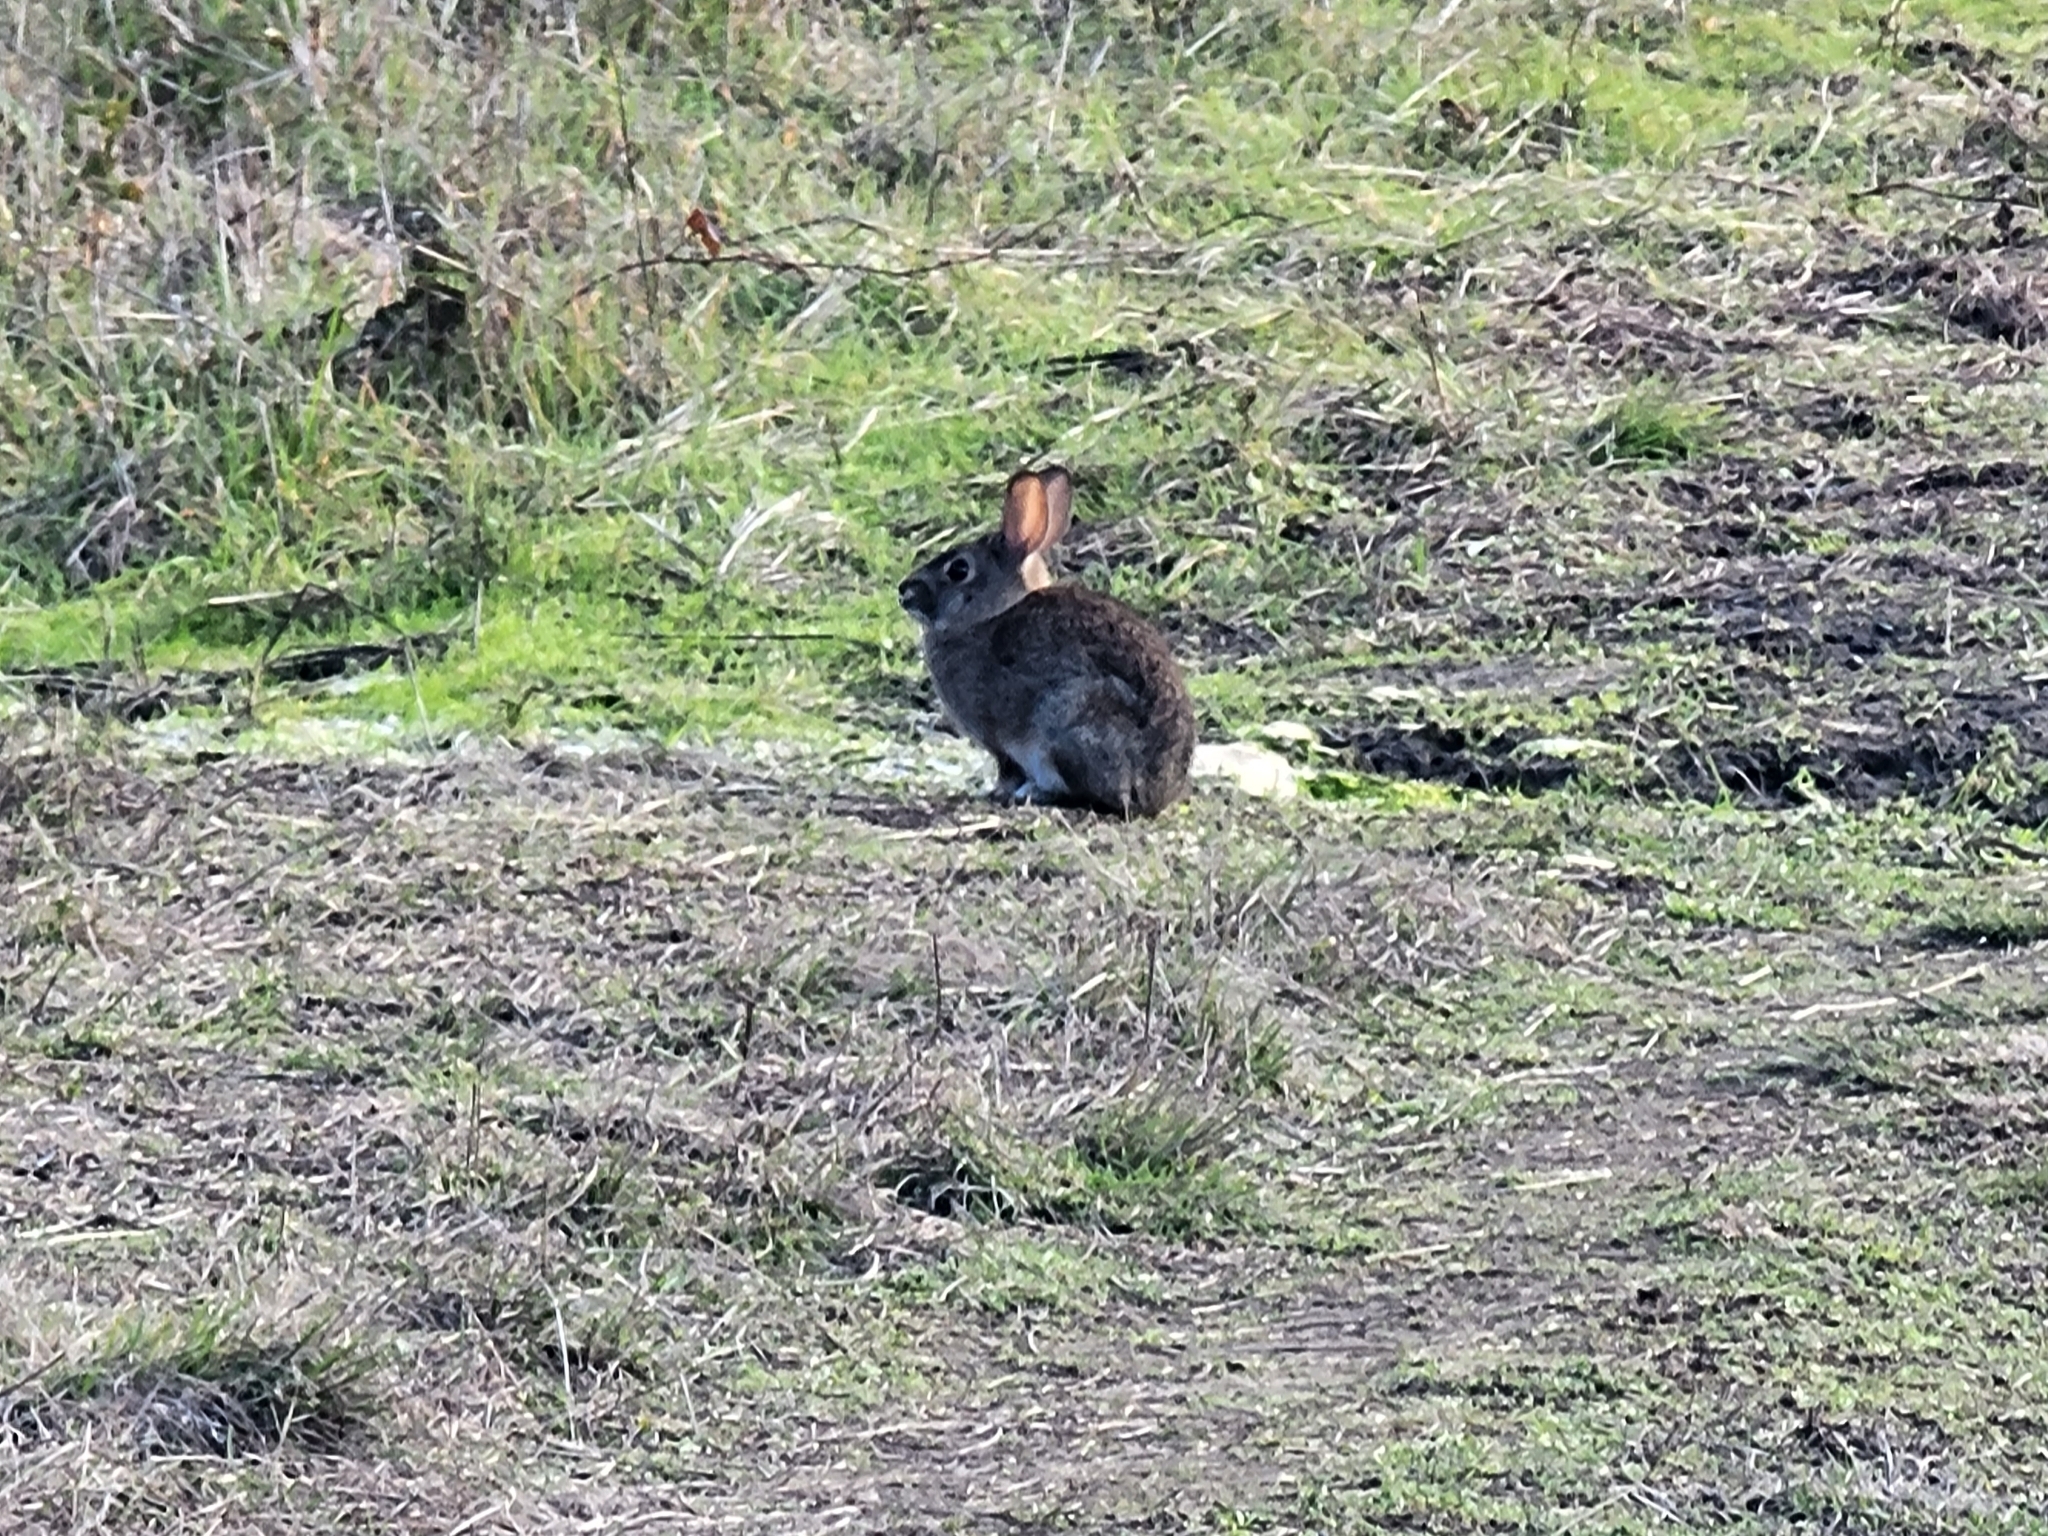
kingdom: Animalia
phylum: Chordata
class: Mammalia
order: Lagomorpha
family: Leporidae
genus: Sylvilagus
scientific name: Sylvilagus bachmani
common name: Brush rabbit
